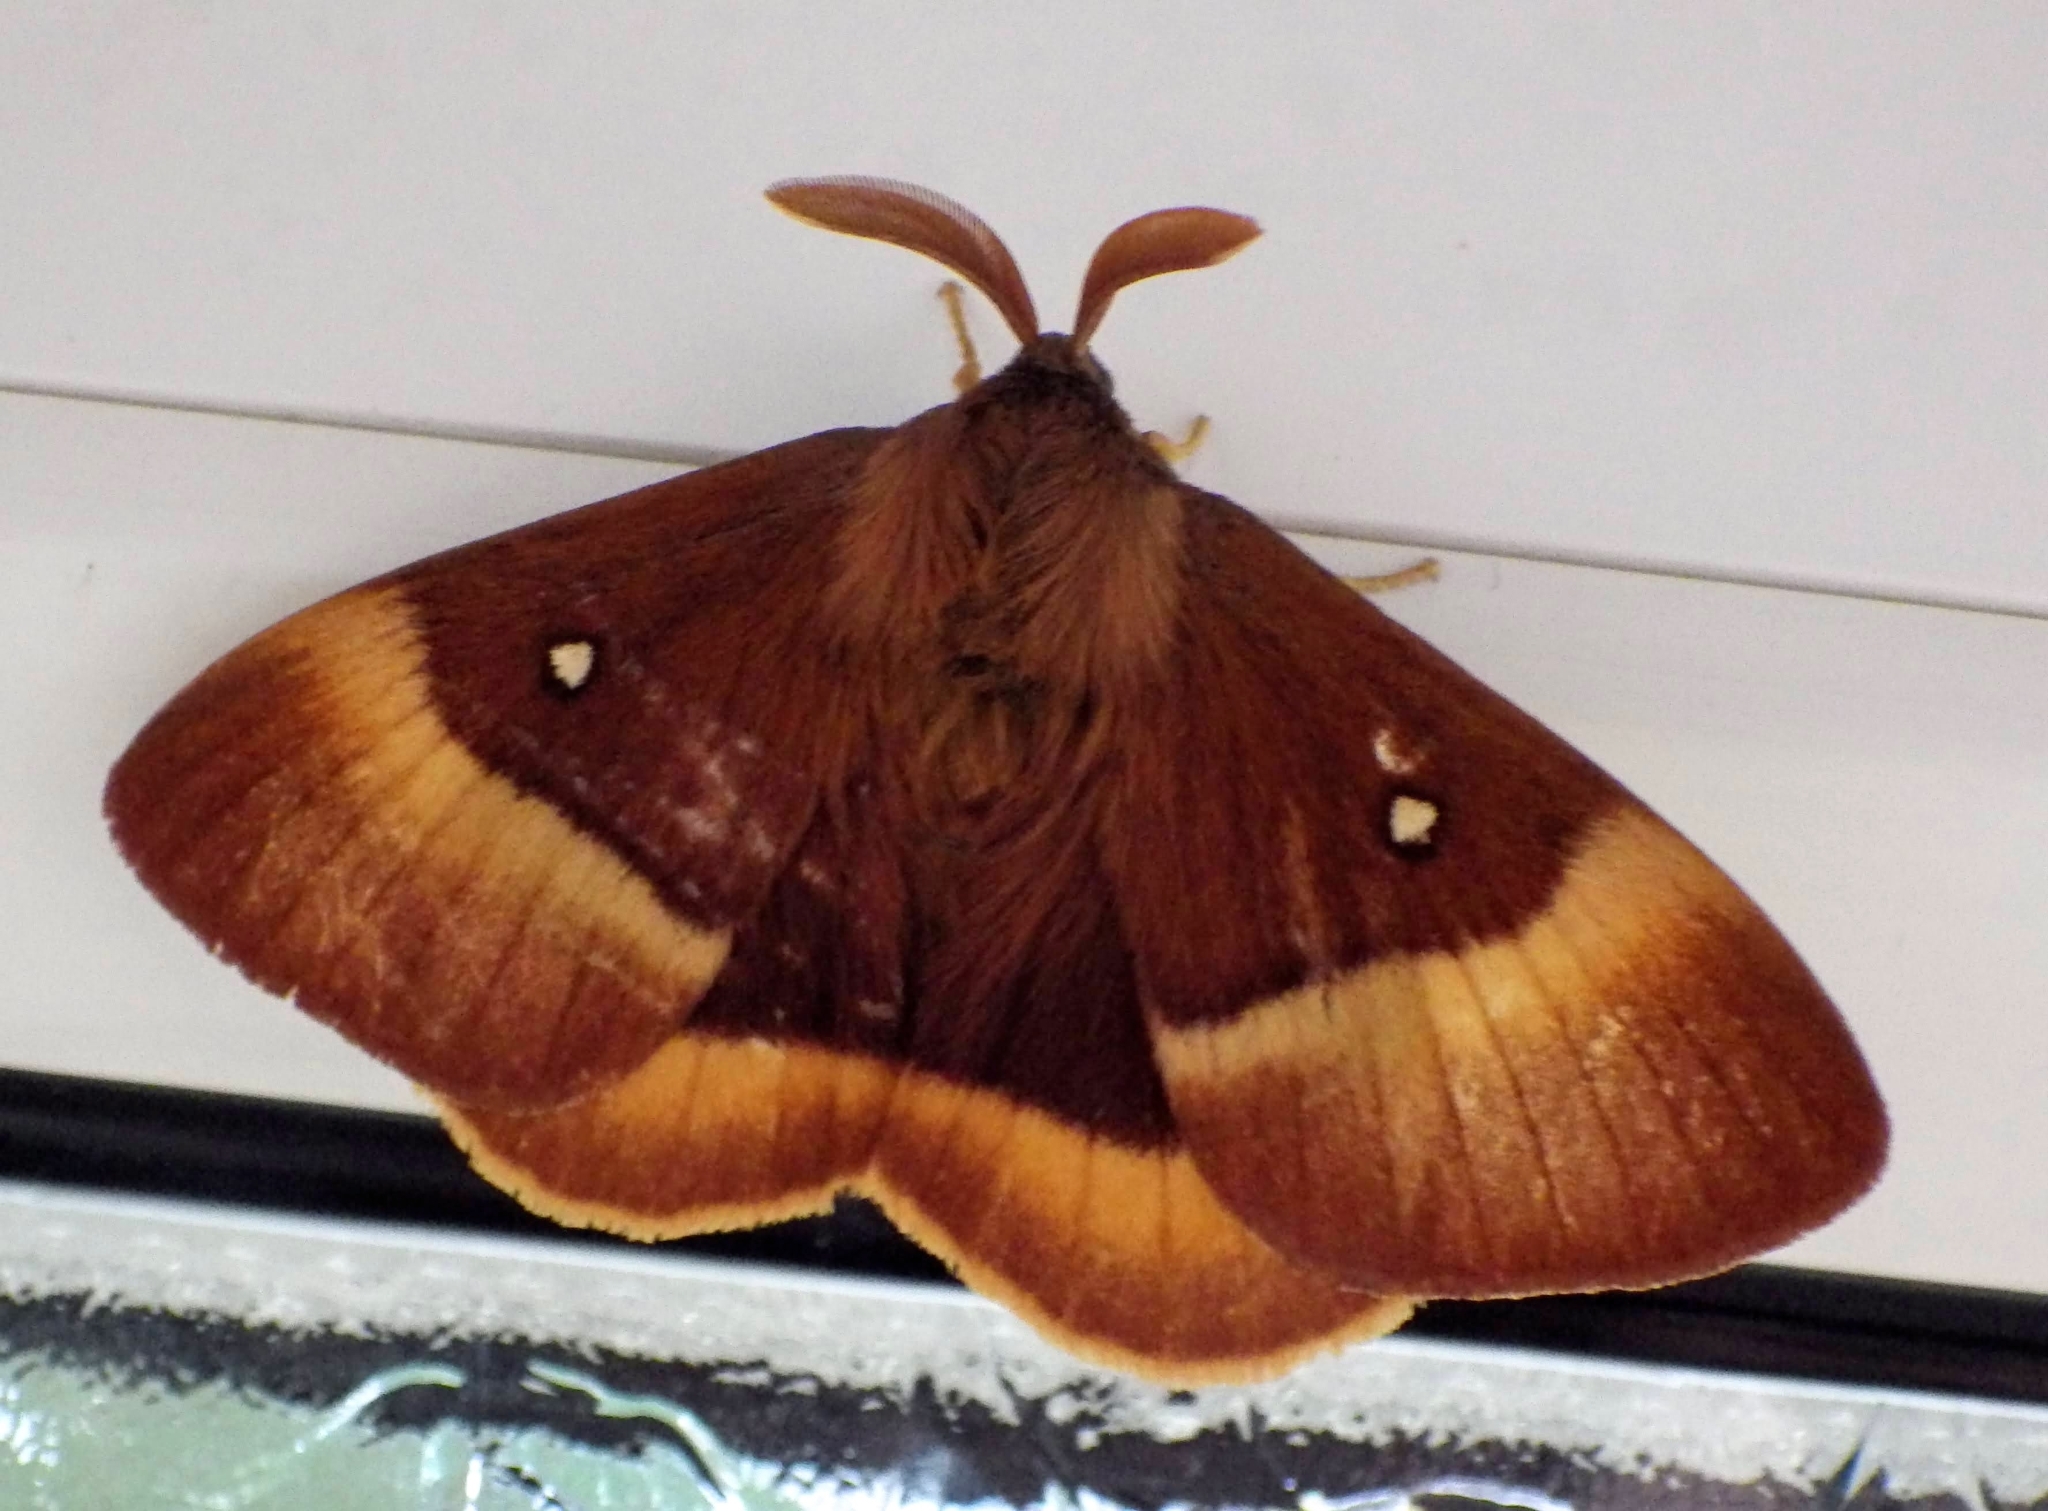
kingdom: Animalia
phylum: Arthropoda
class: Insecta
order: Lepidoptera
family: Lasiocampidae
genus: Lasiocampa
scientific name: Lasiocampa quercus
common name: Oak eggar
